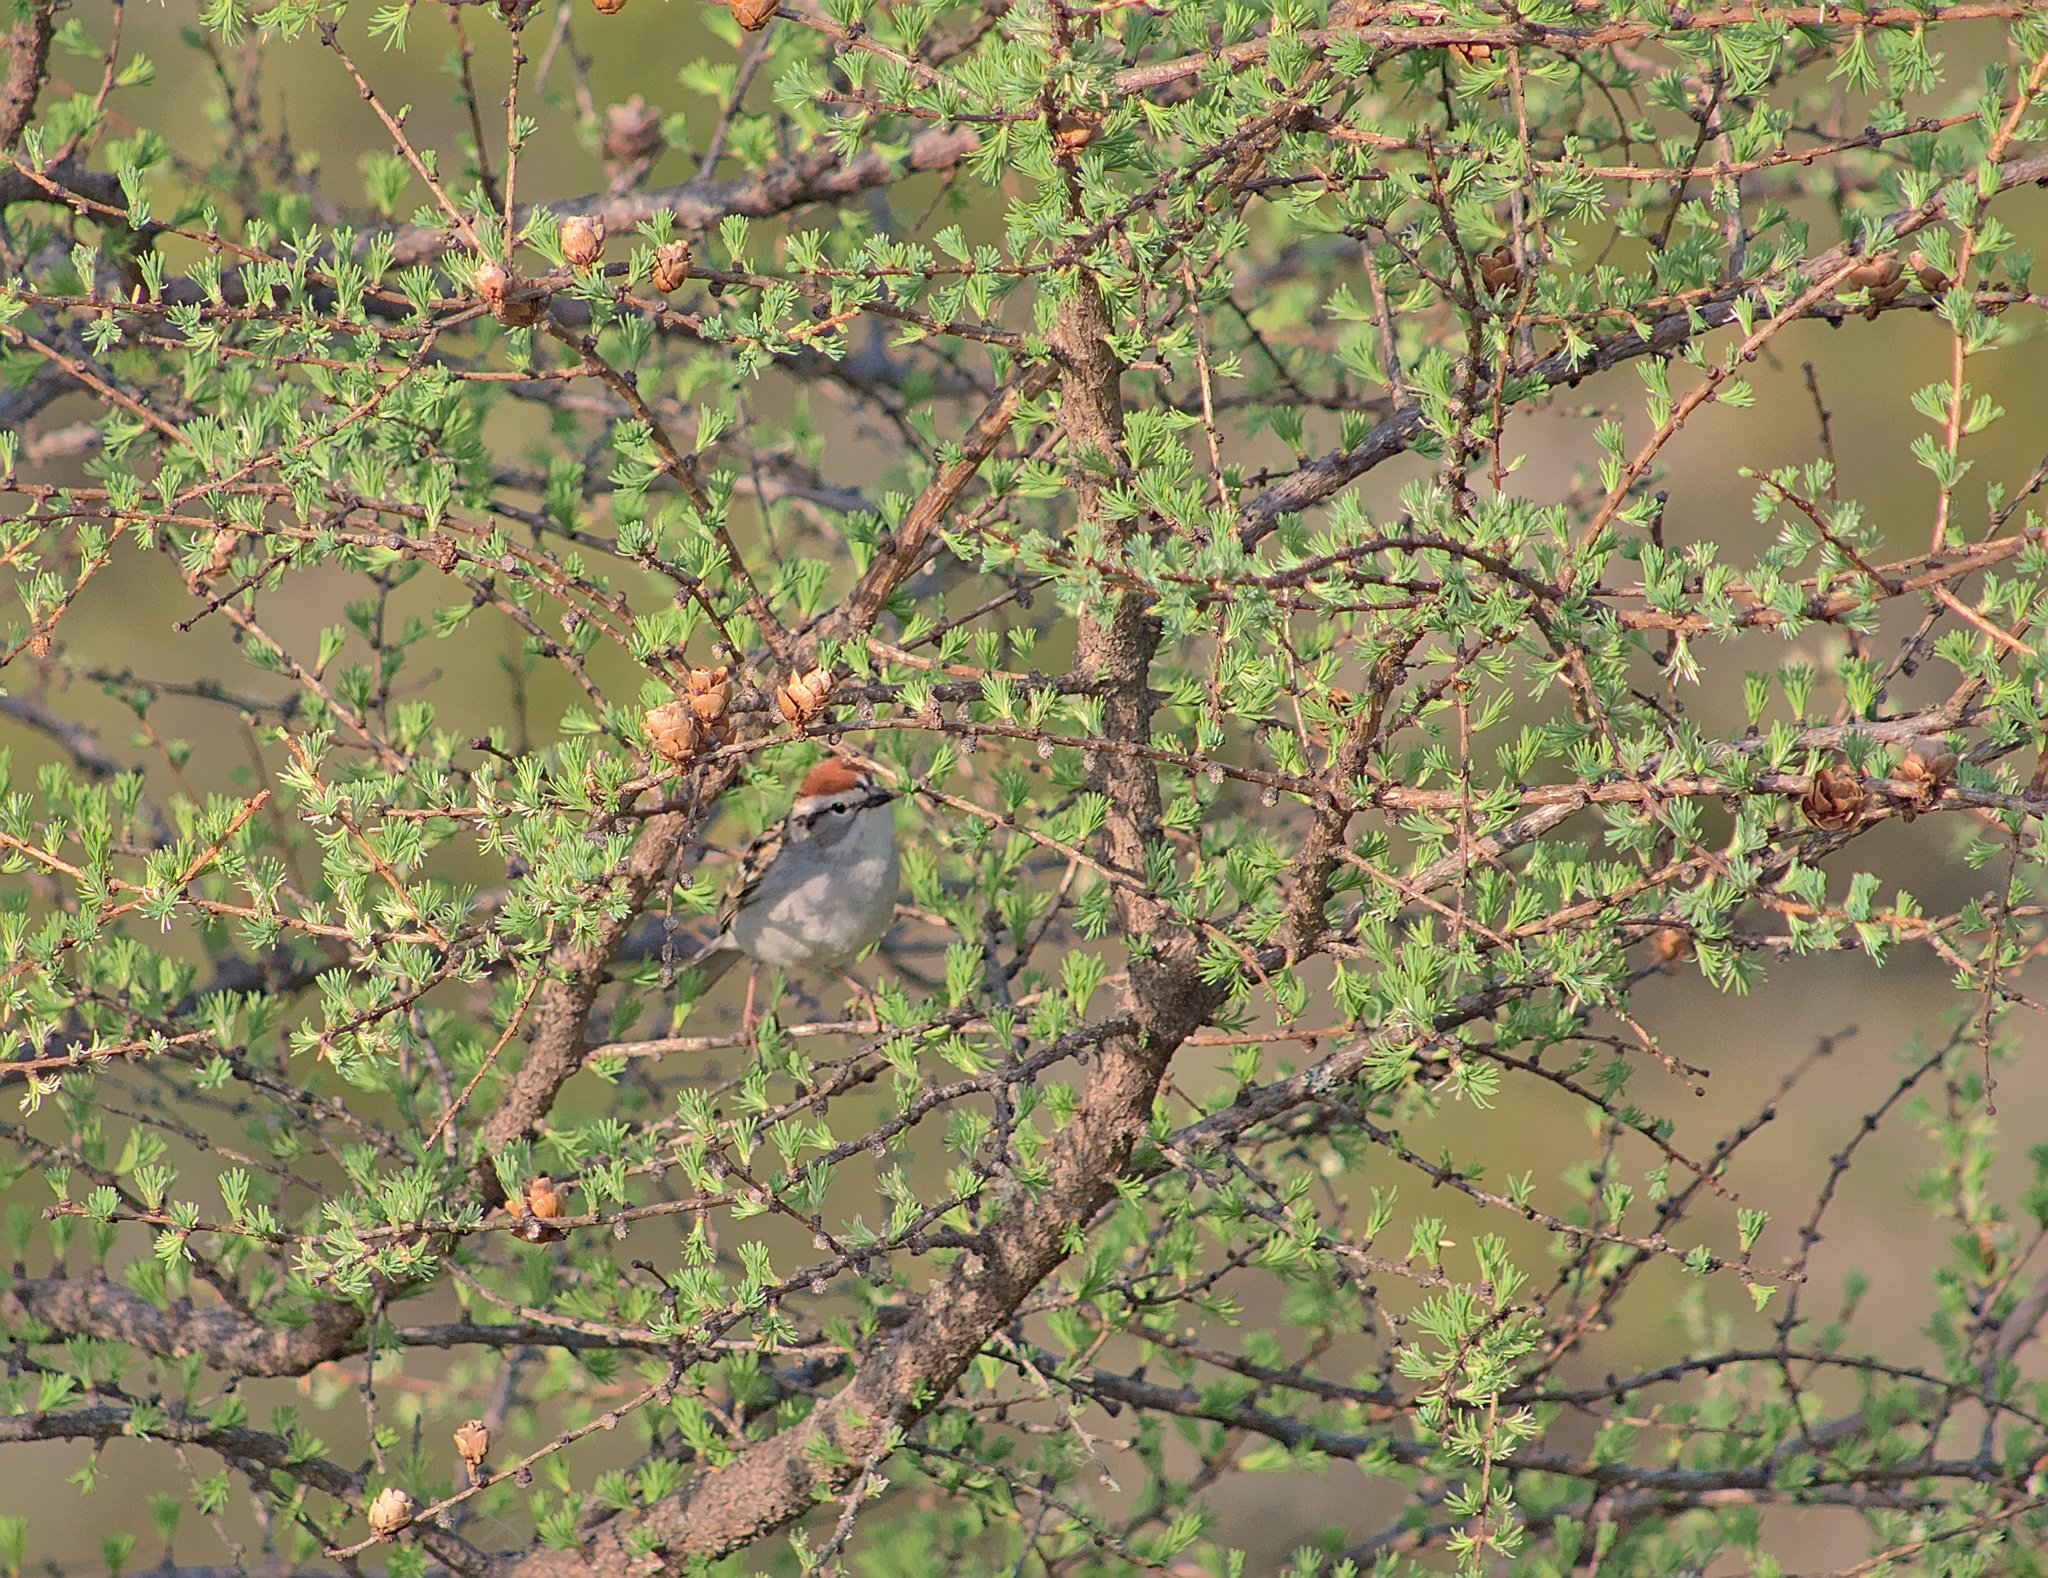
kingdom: Animalia
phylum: Chordata
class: Aves
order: Passeriformes
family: Passerellidae
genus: Spizella
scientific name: Spizella passerina
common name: Chipping sparrow
